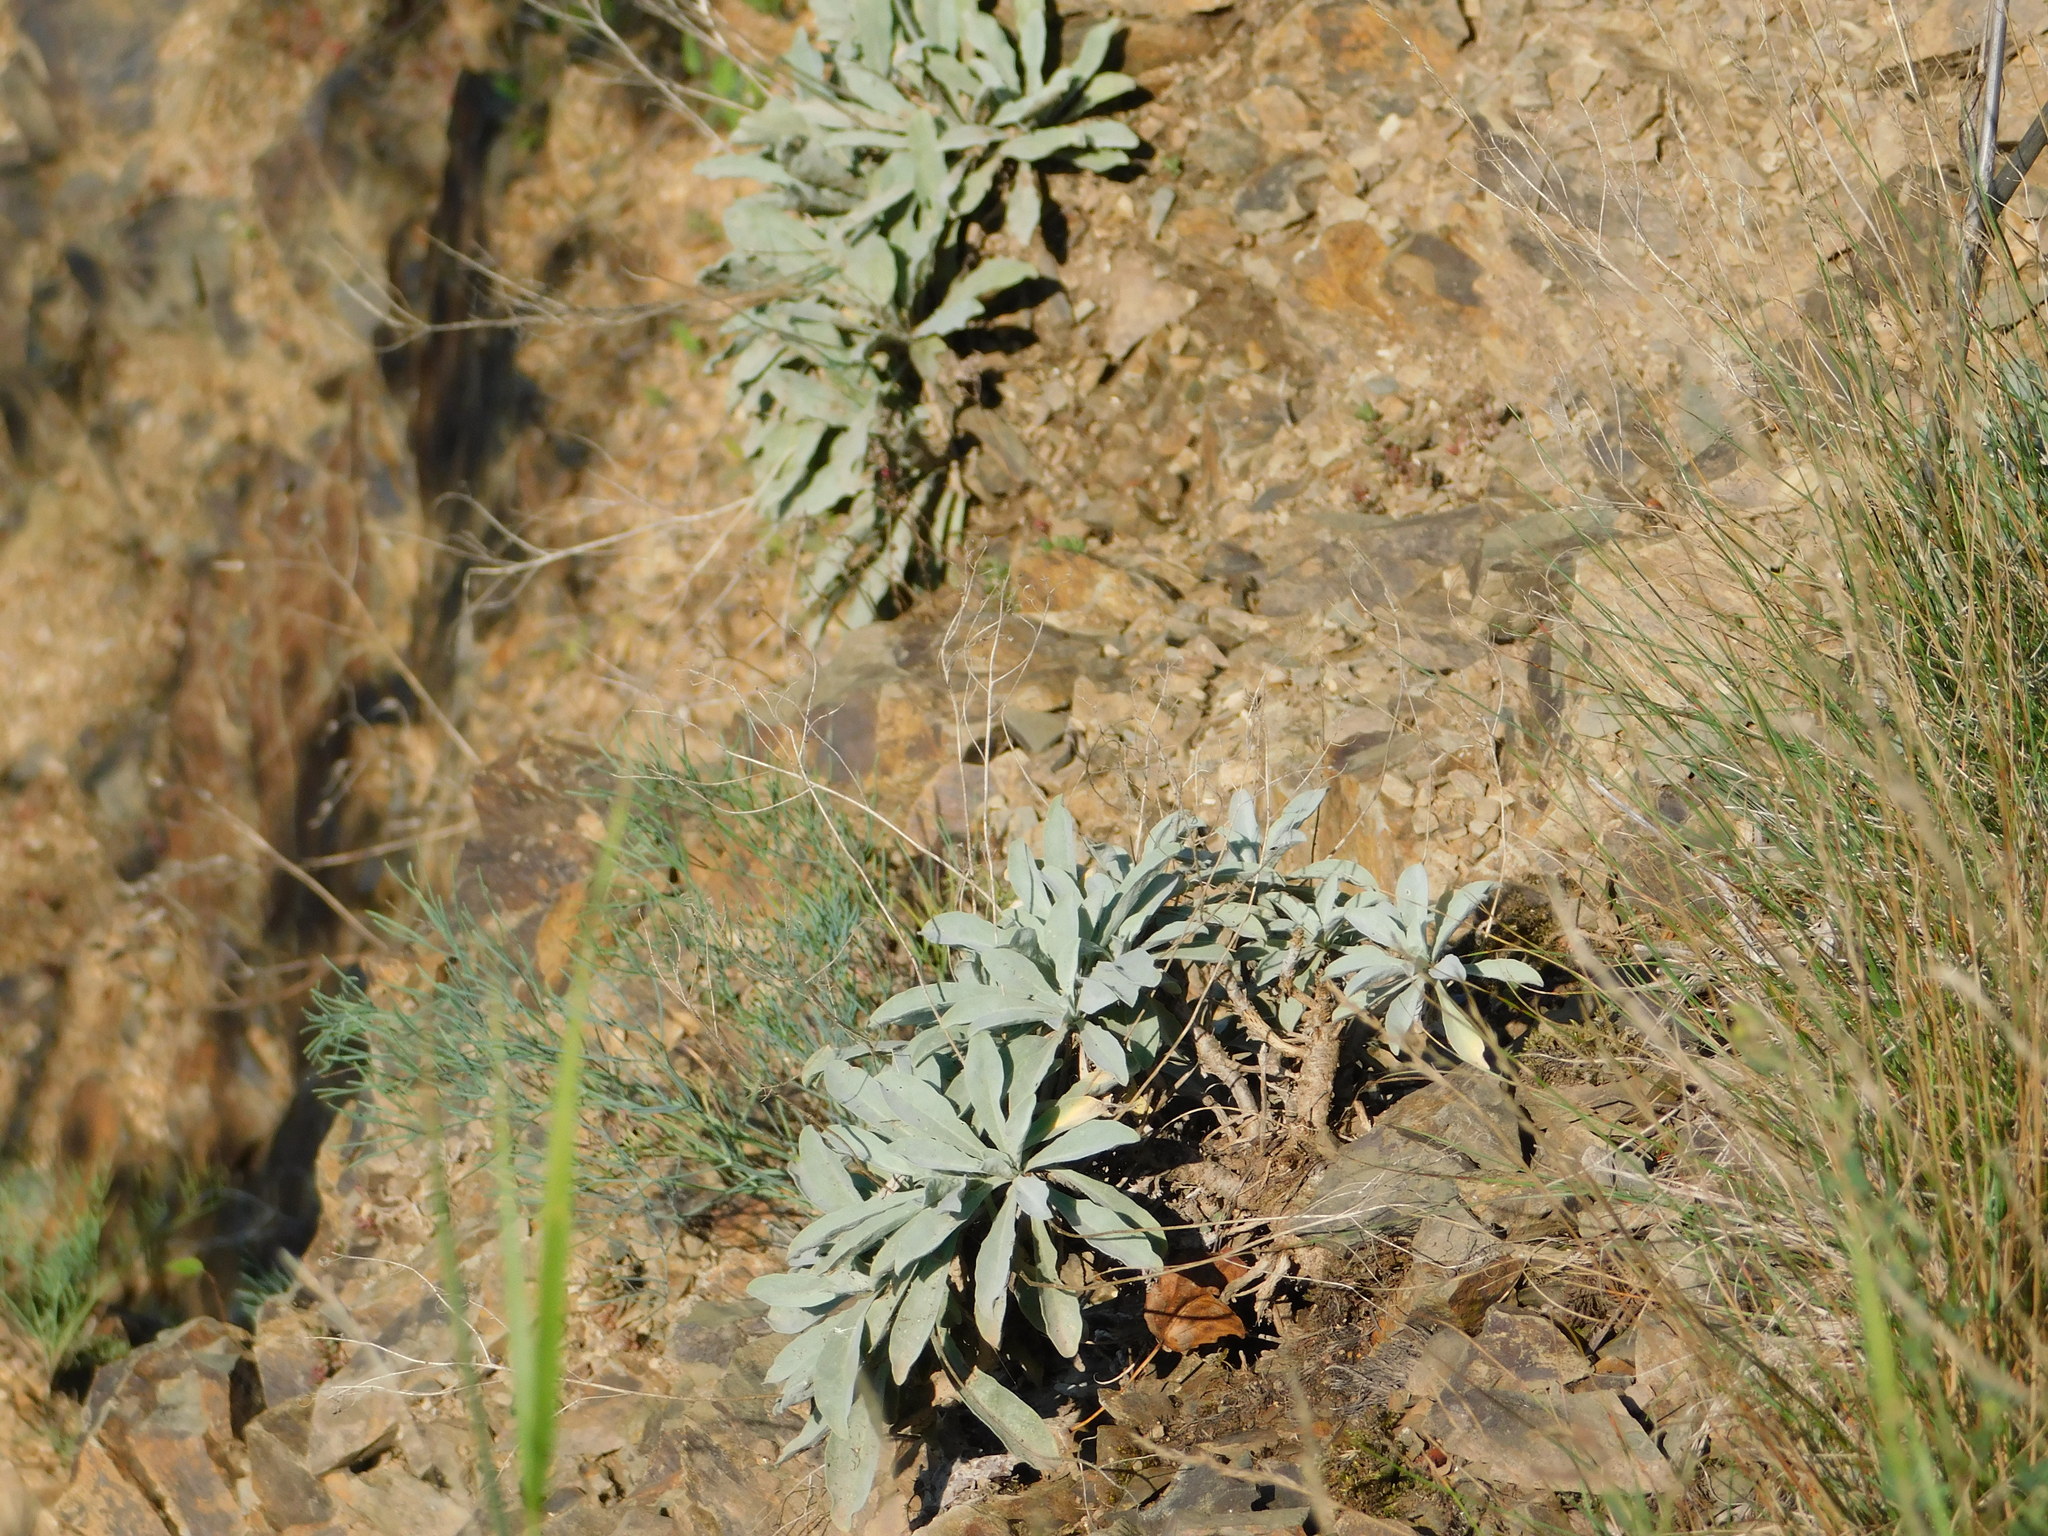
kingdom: Plantae
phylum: Tracheophyta
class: Magnoliopsida
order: Brassicales
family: Brassicaceae
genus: Aurinia
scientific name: Aurinia saxatilis
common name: Golden-tuft alyssum
